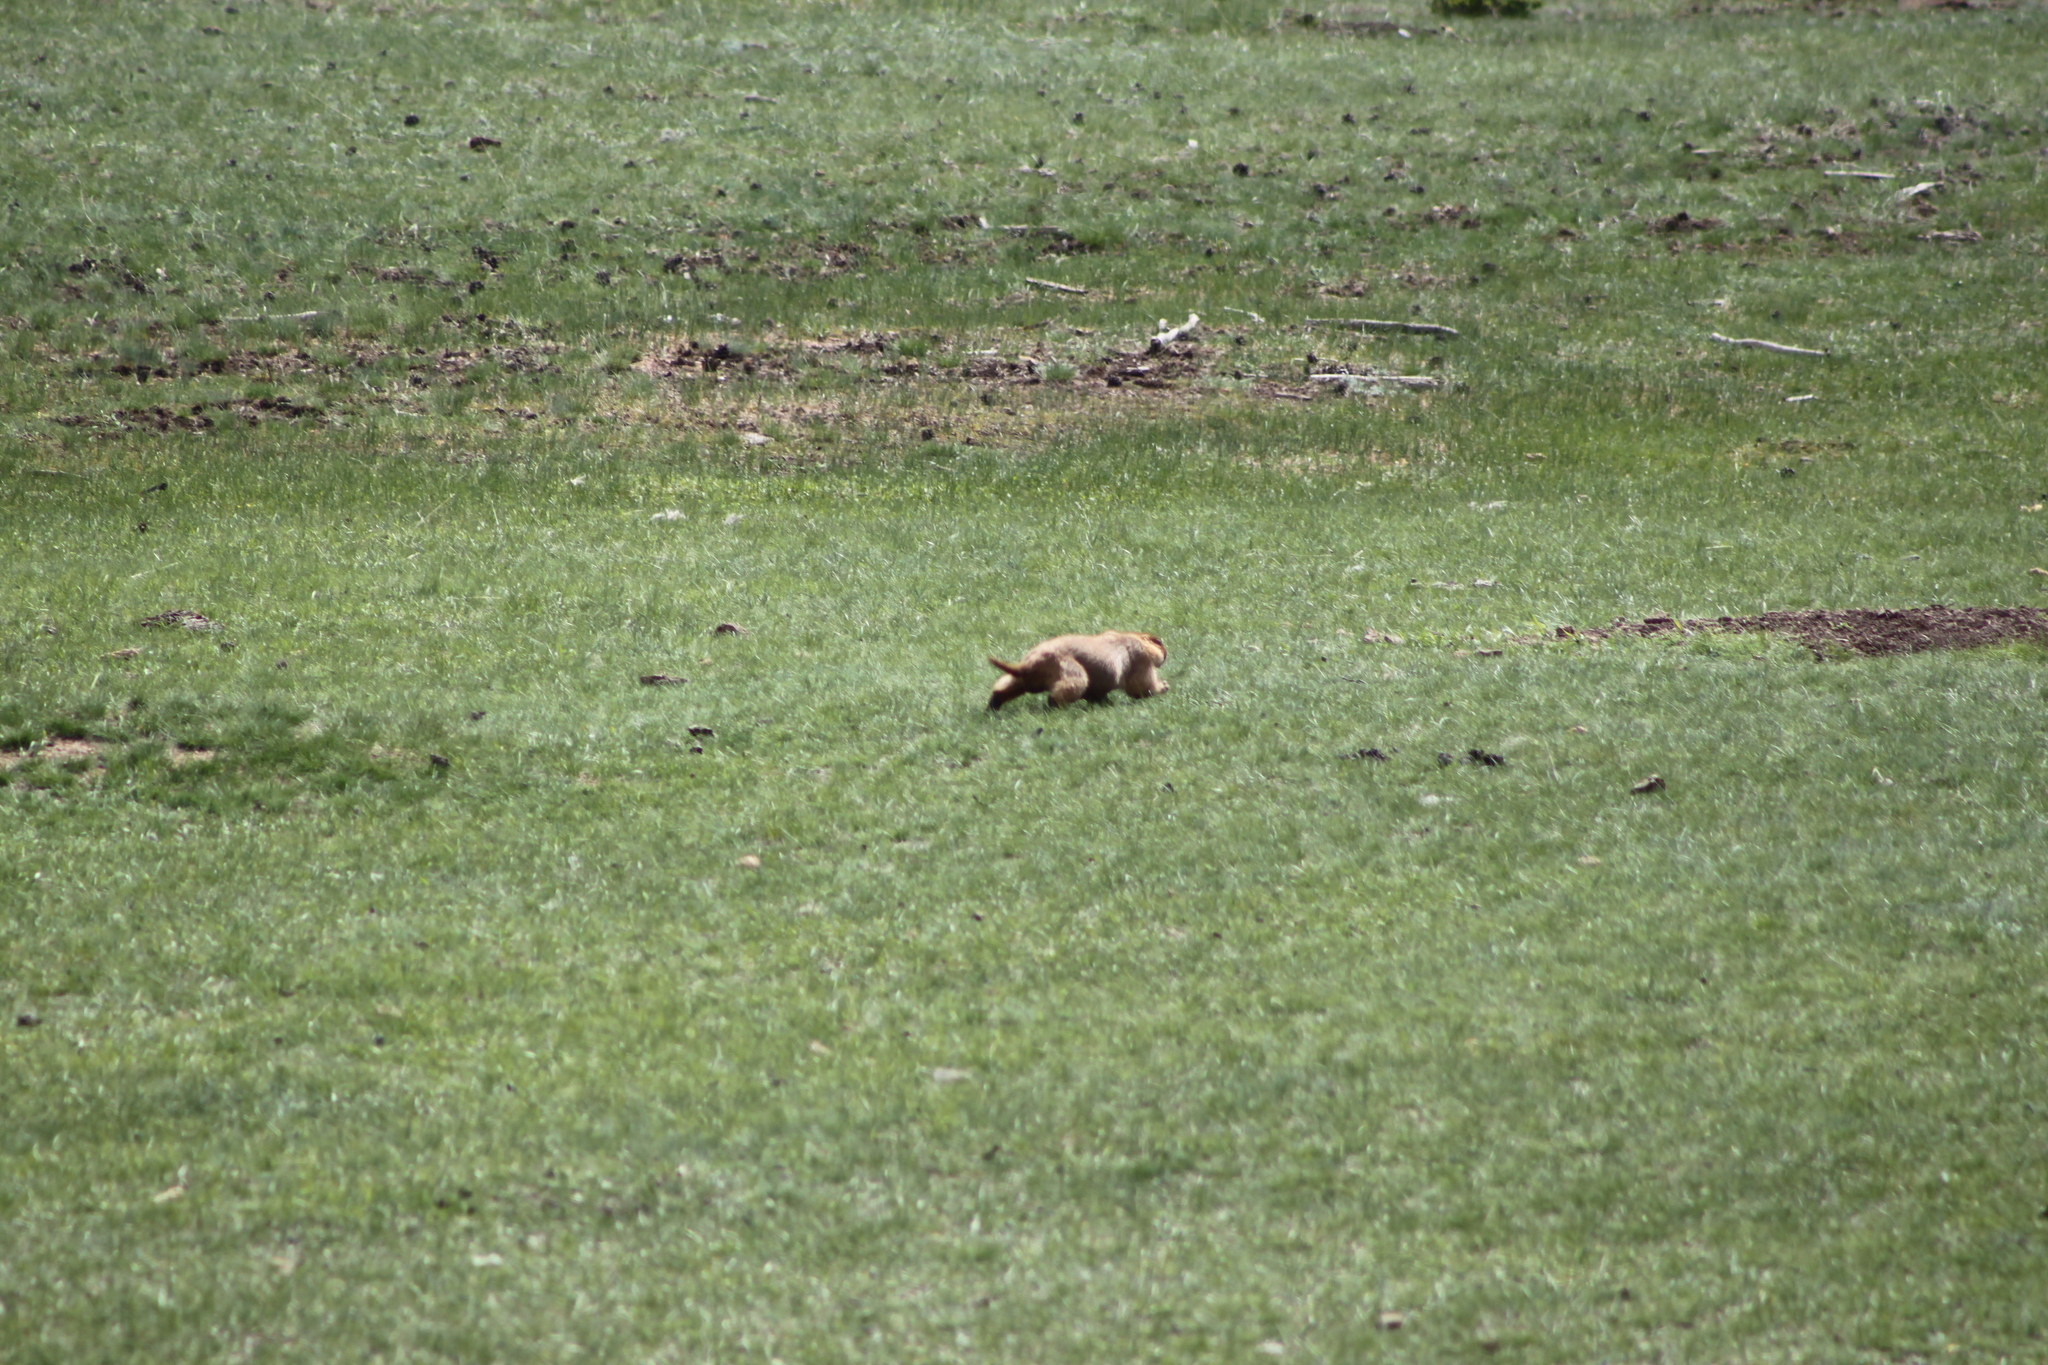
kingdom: Animalia
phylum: Chordata
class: Mammalia
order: Rodentia
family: Sciuridae
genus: Marmota
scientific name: Marmota bobak
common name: Bobak marmot
